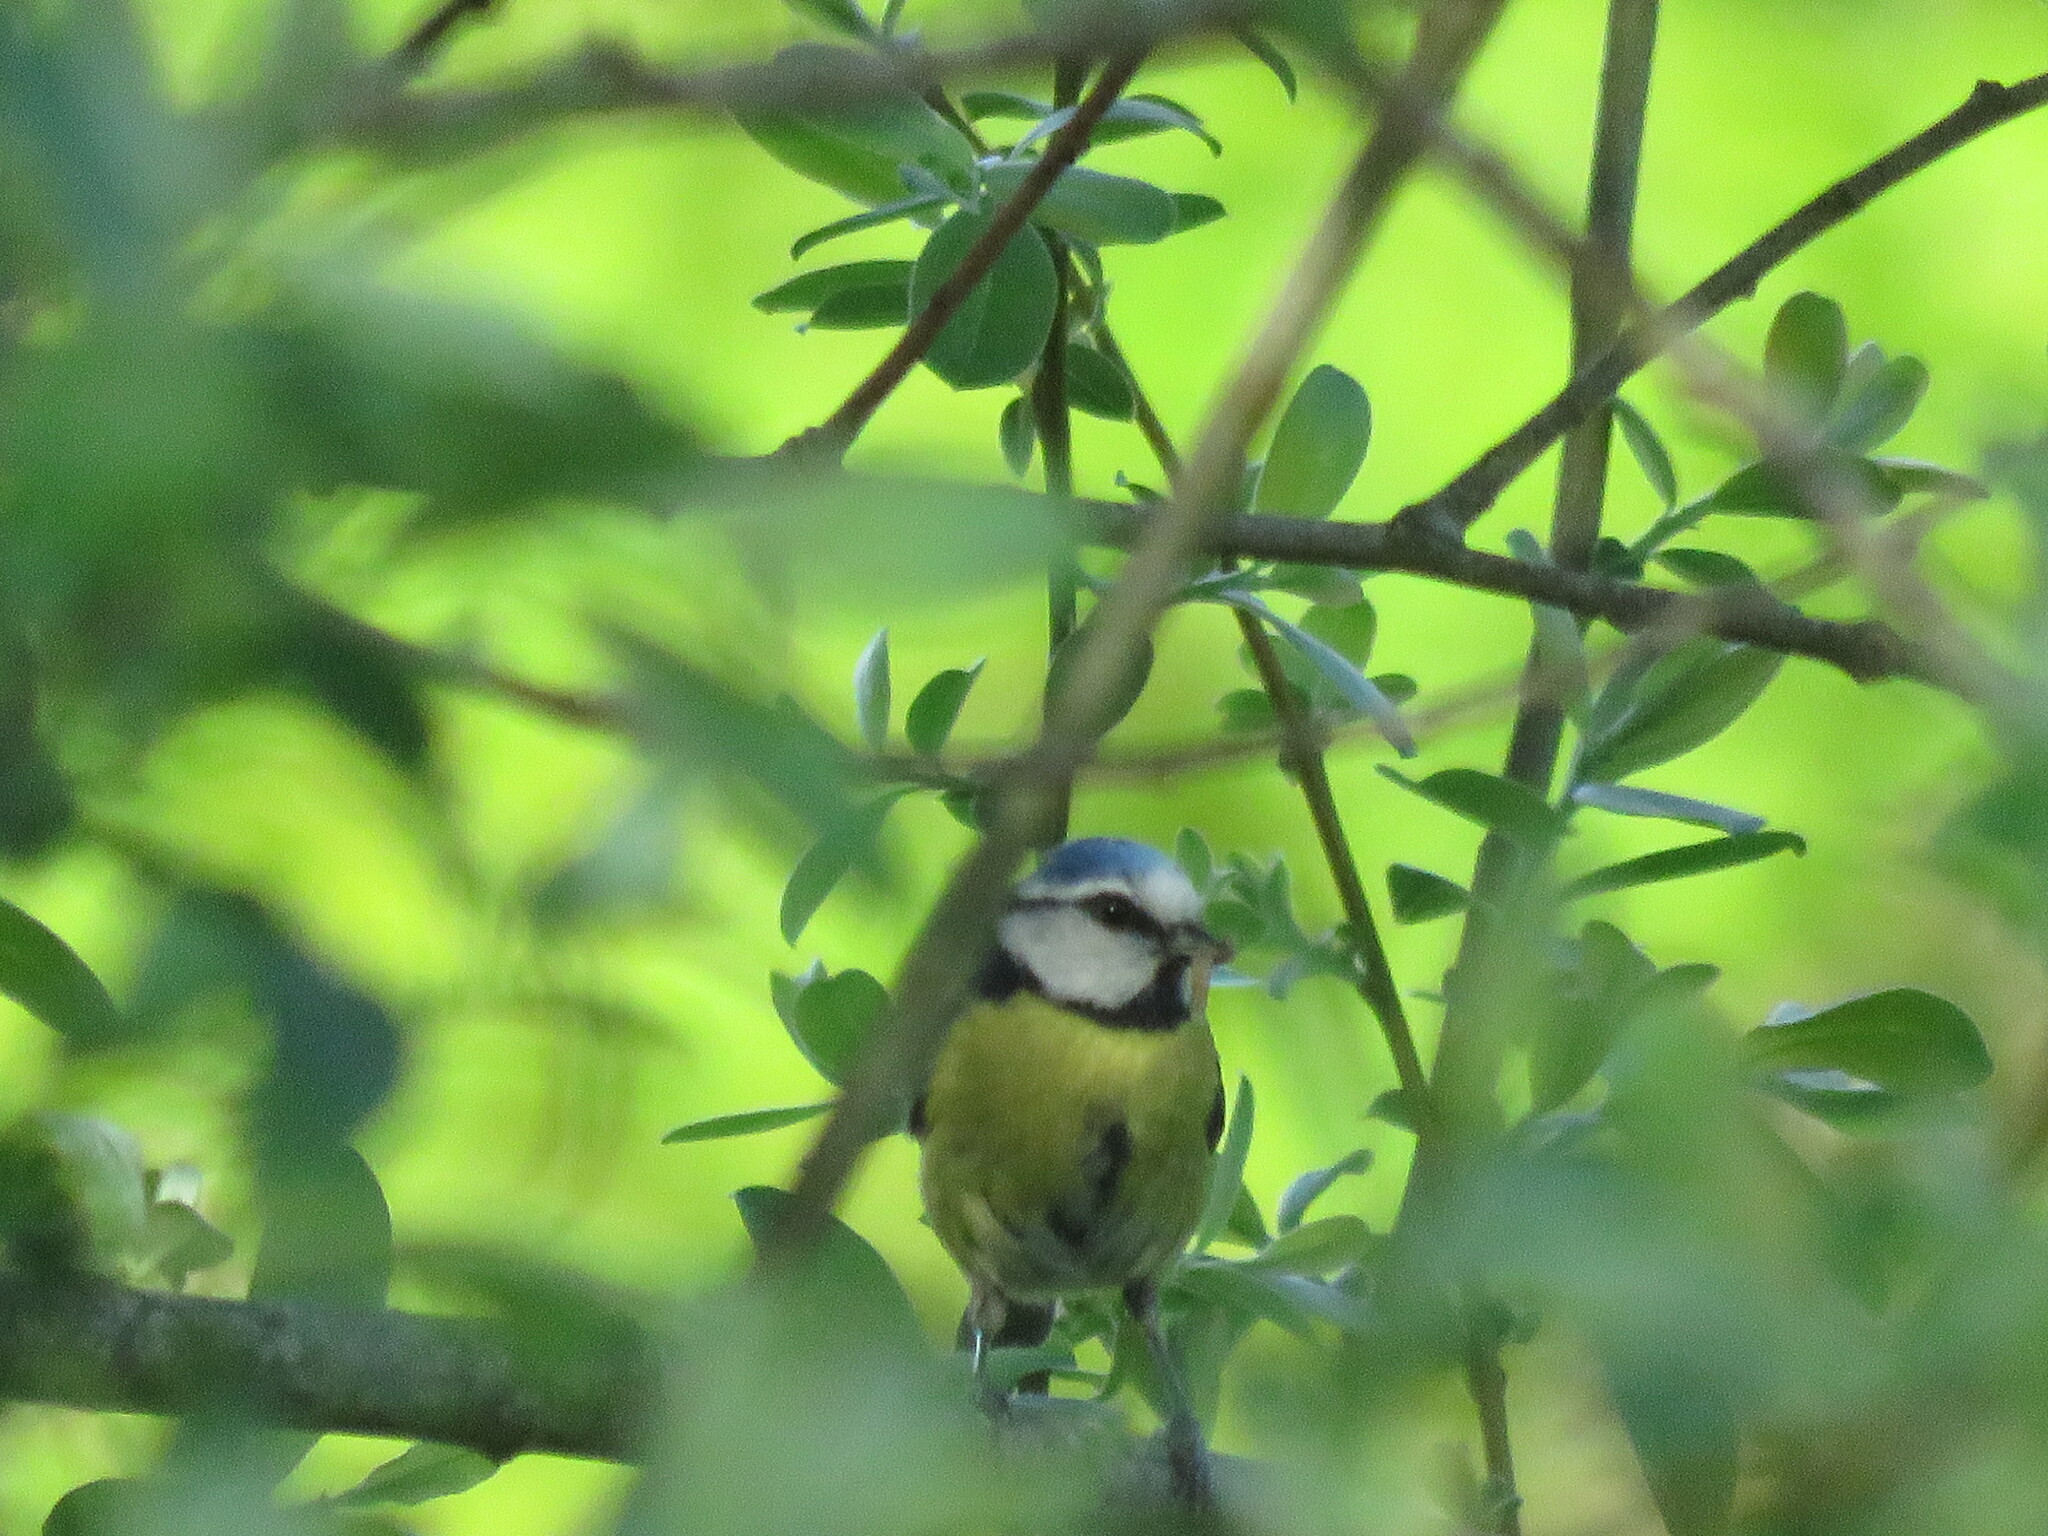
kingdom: Animalia
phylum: Chordata
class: Aves
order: Passeriformes
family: Paridae
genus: Cyanistes
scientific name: Cyanistes caeruleus
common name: Eurasian blue tit
